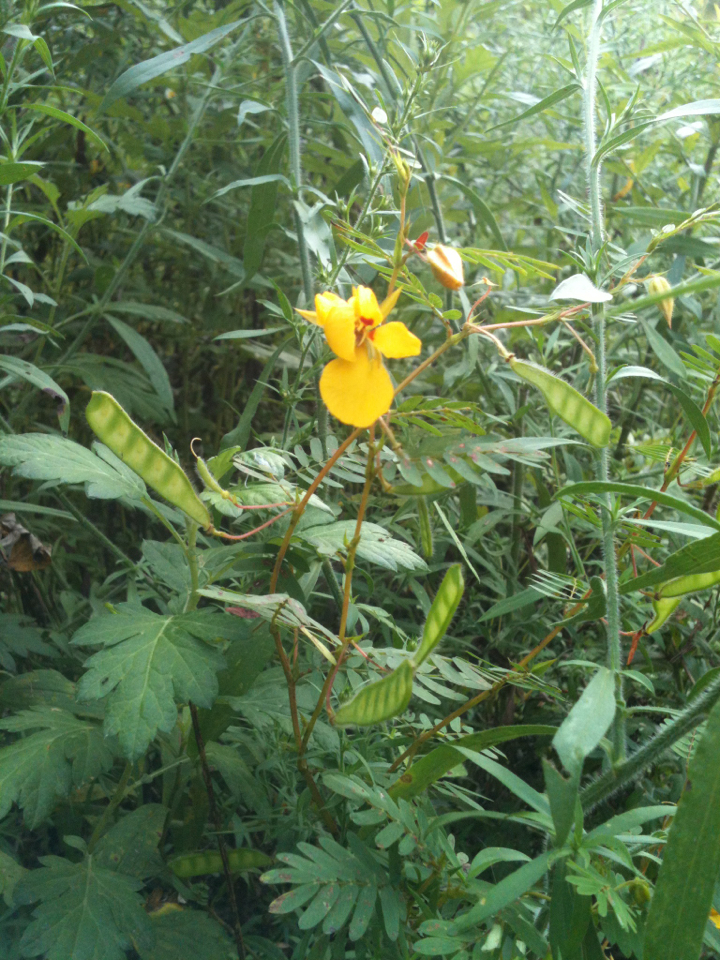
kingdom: Plantae
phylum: Tracheophyta
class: Magnoliopsida
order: Fabales
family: Fabaceae
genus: Chamaecrista
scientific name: Chamaecrista fasciculata
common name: Golden cassia
